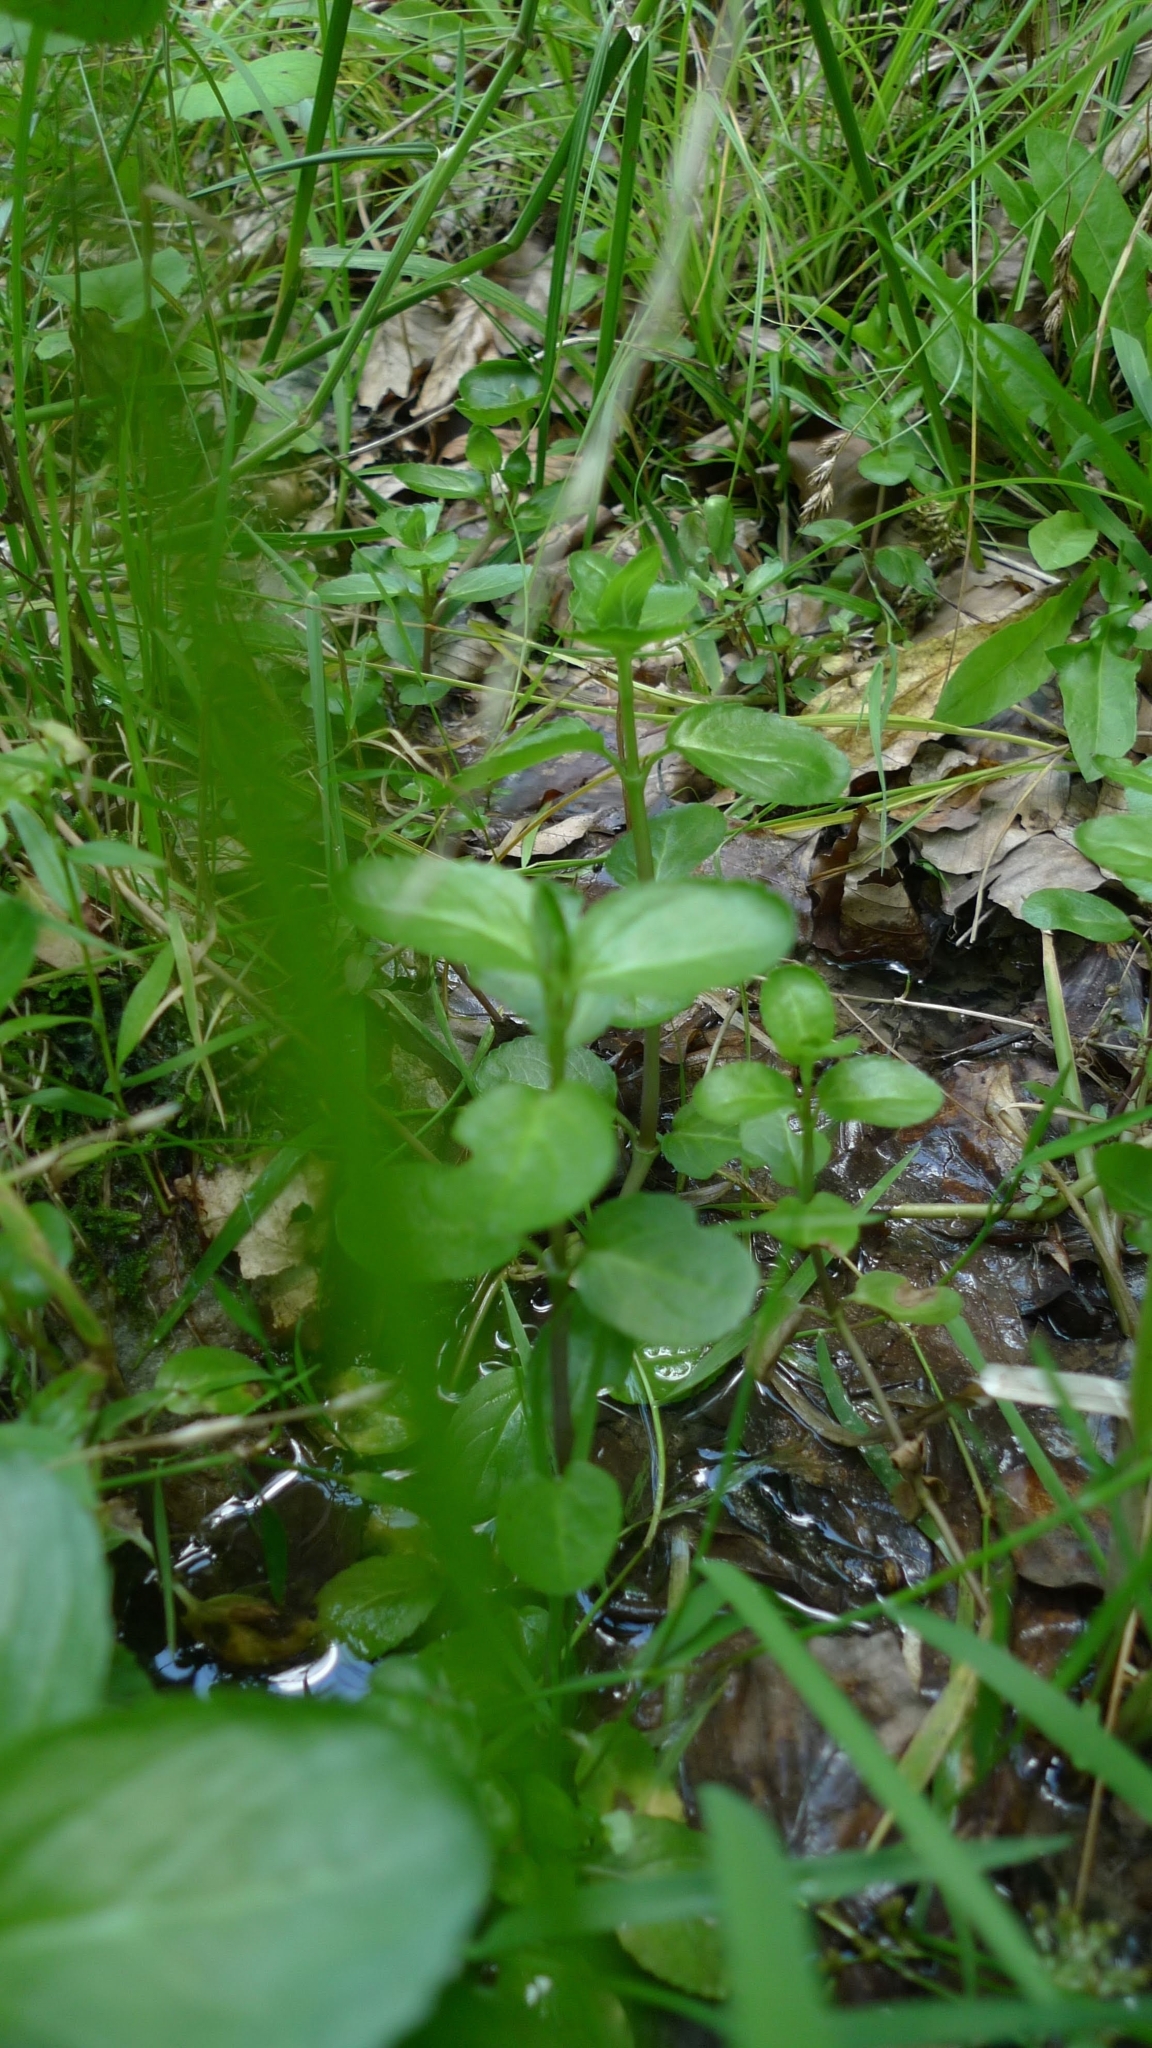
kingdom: Plantae
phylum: Tracheophyta
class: Magnoliopsida
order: Lamiales
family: Plantaginaceae
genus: Veronica
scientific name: Veronica beccabunga
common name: Brooklime
